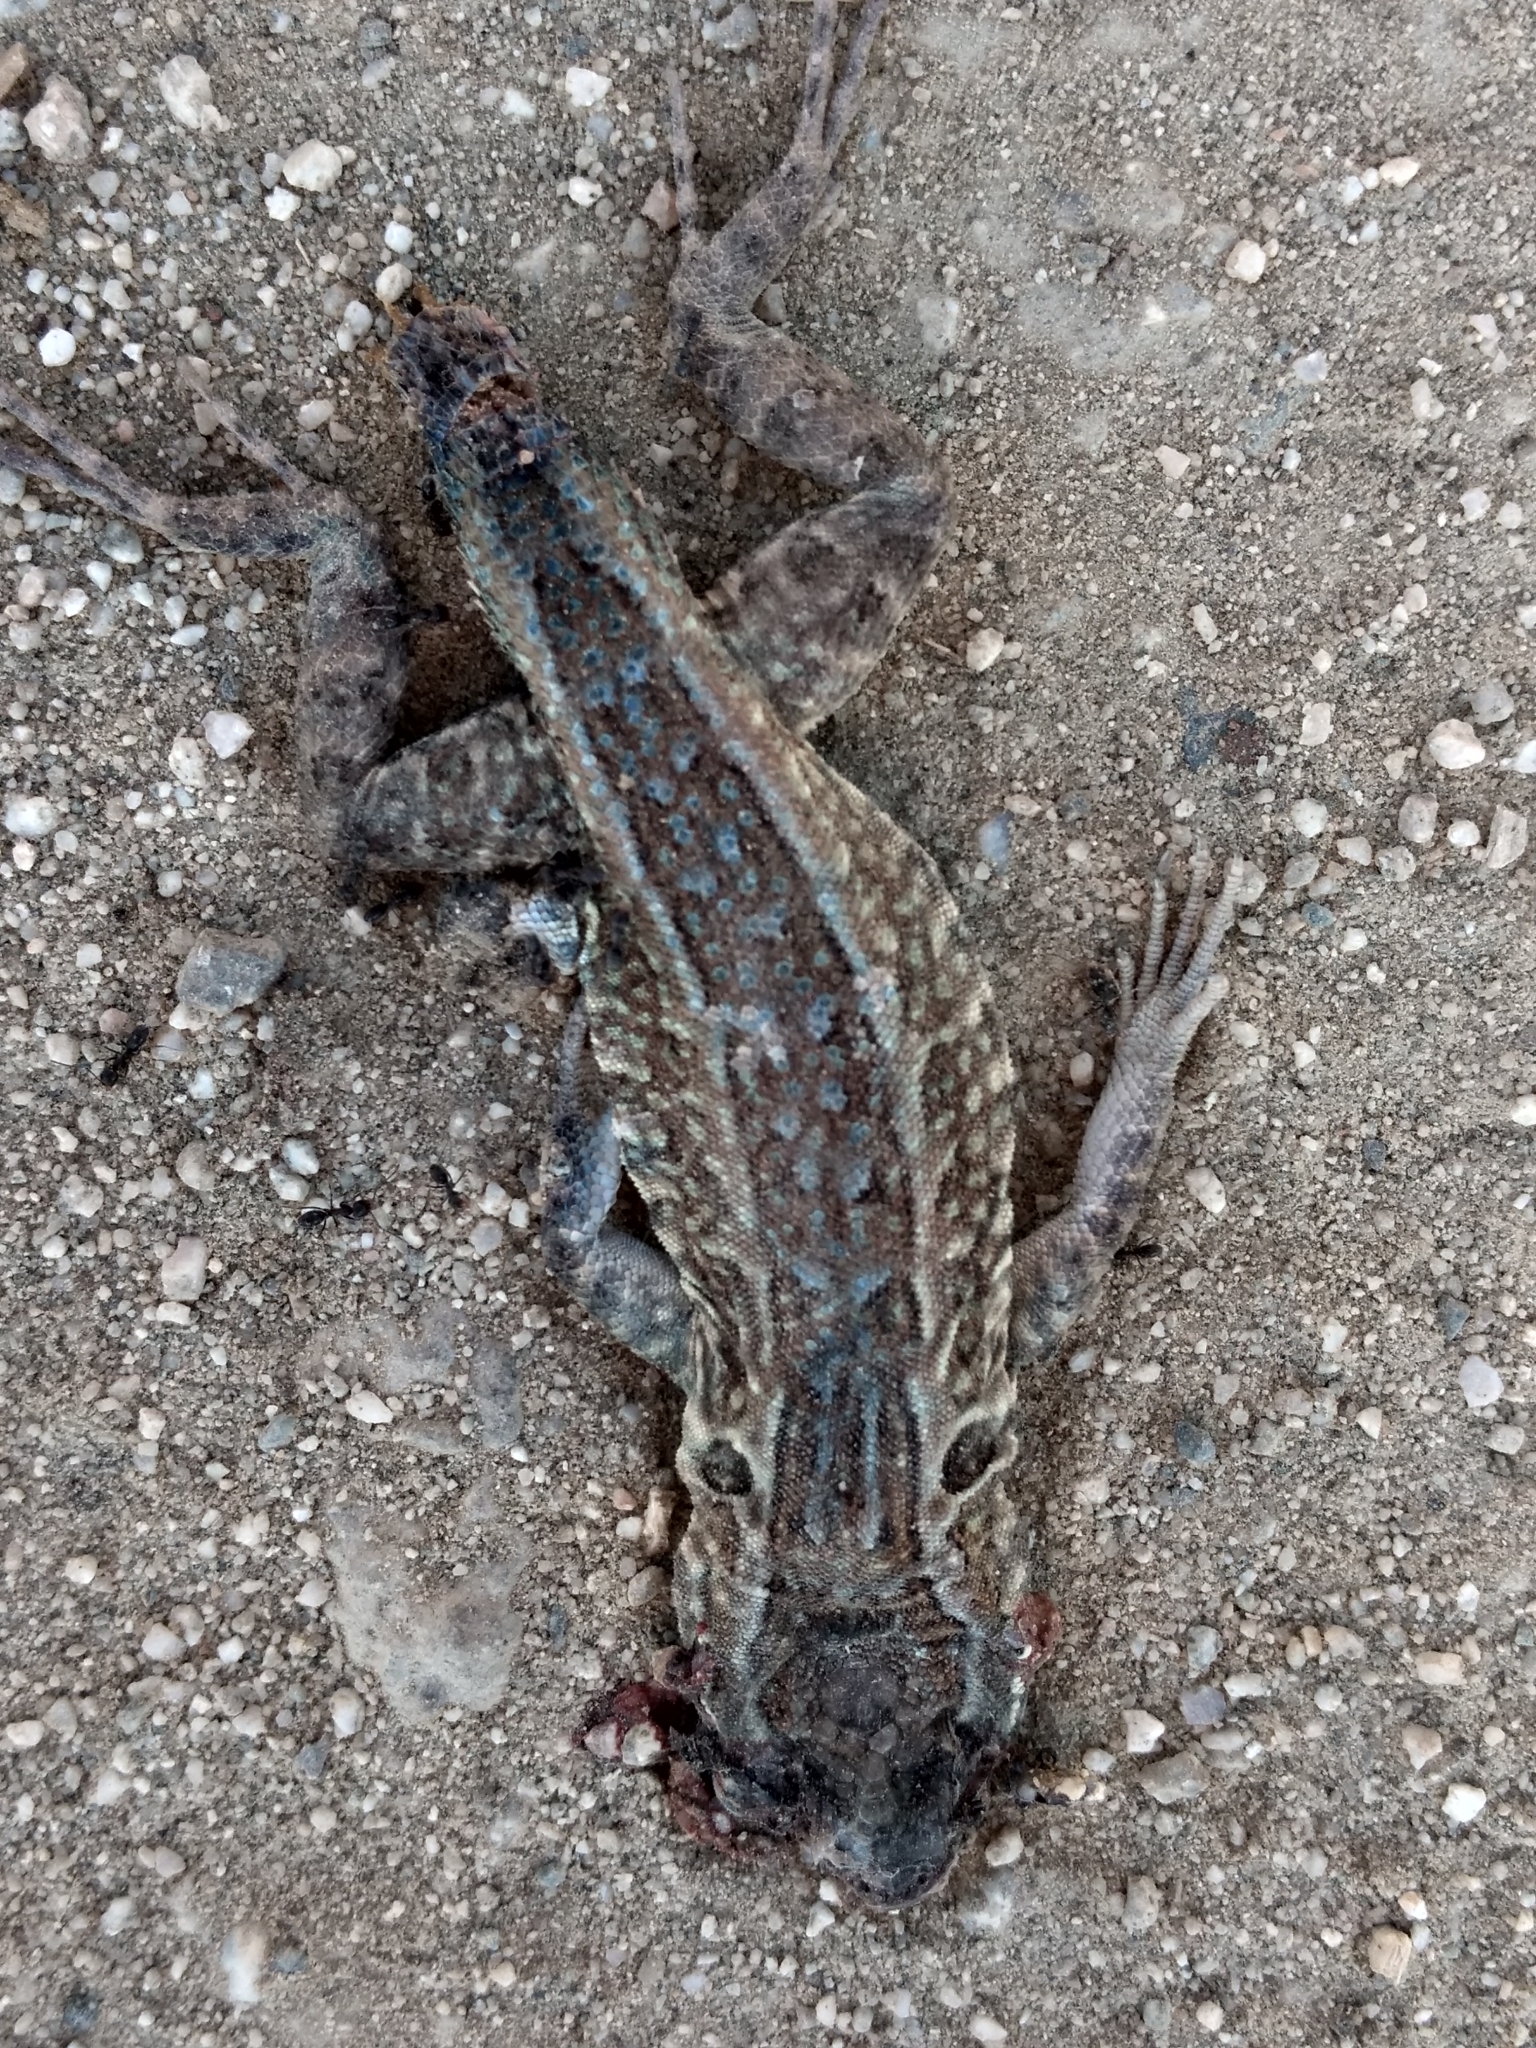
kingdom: Animalia
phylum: Chordata
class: Squamata
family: Phrynosomatidae
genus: Uta
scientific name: Uta stansburiana
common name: Side-blotched lizard
